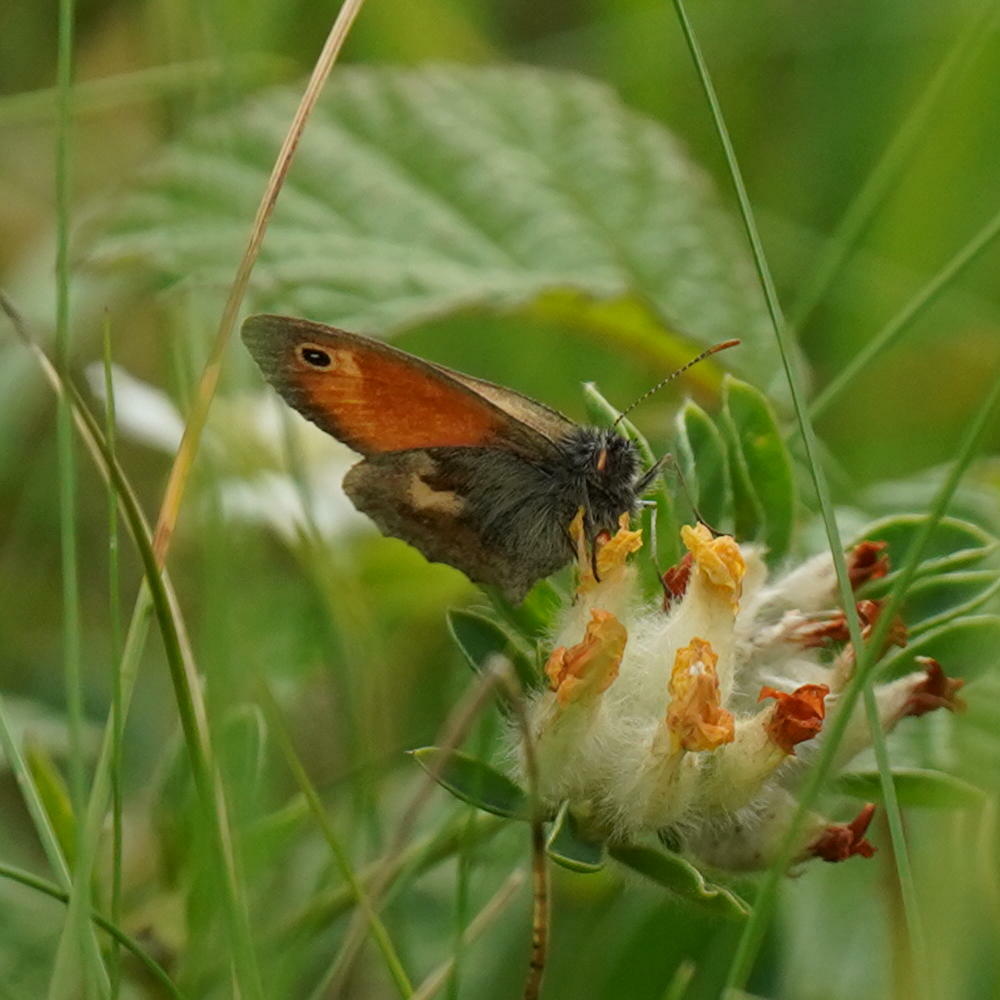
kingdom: Animalia
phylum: Arthropoda
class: Insecta
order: Lepidoptera
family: Nymphalidae
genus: Coenonympha
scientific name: Coenonympha pamphilus
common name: Small heath
